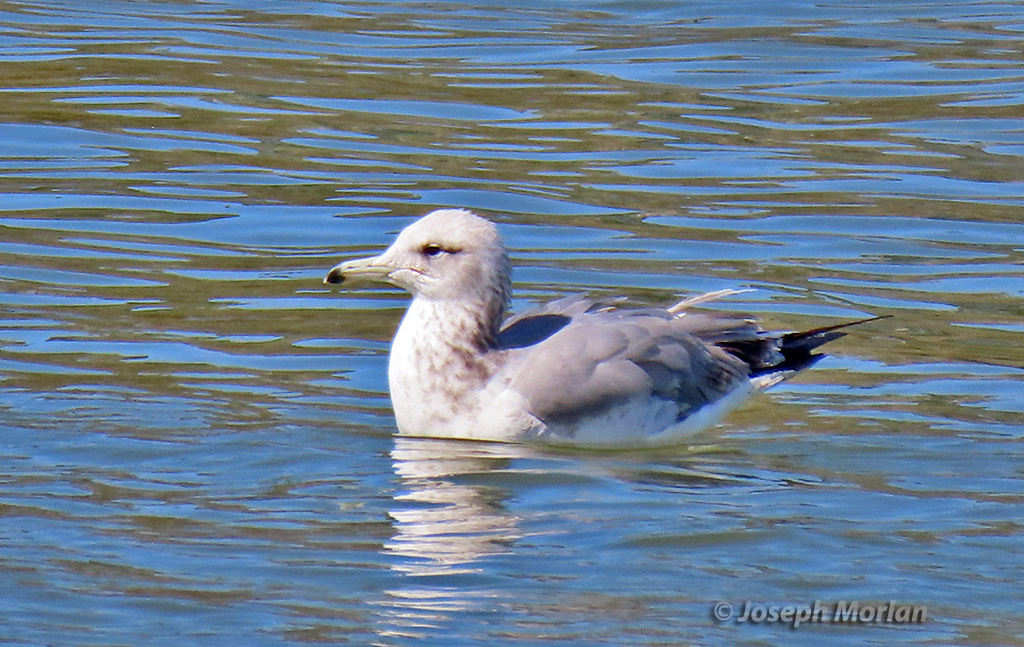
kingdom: Animalia
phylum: Chordata
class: Aves
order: Charadriiformes
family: Laridae
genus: Larus
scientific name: Larus californicus
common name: California gull
